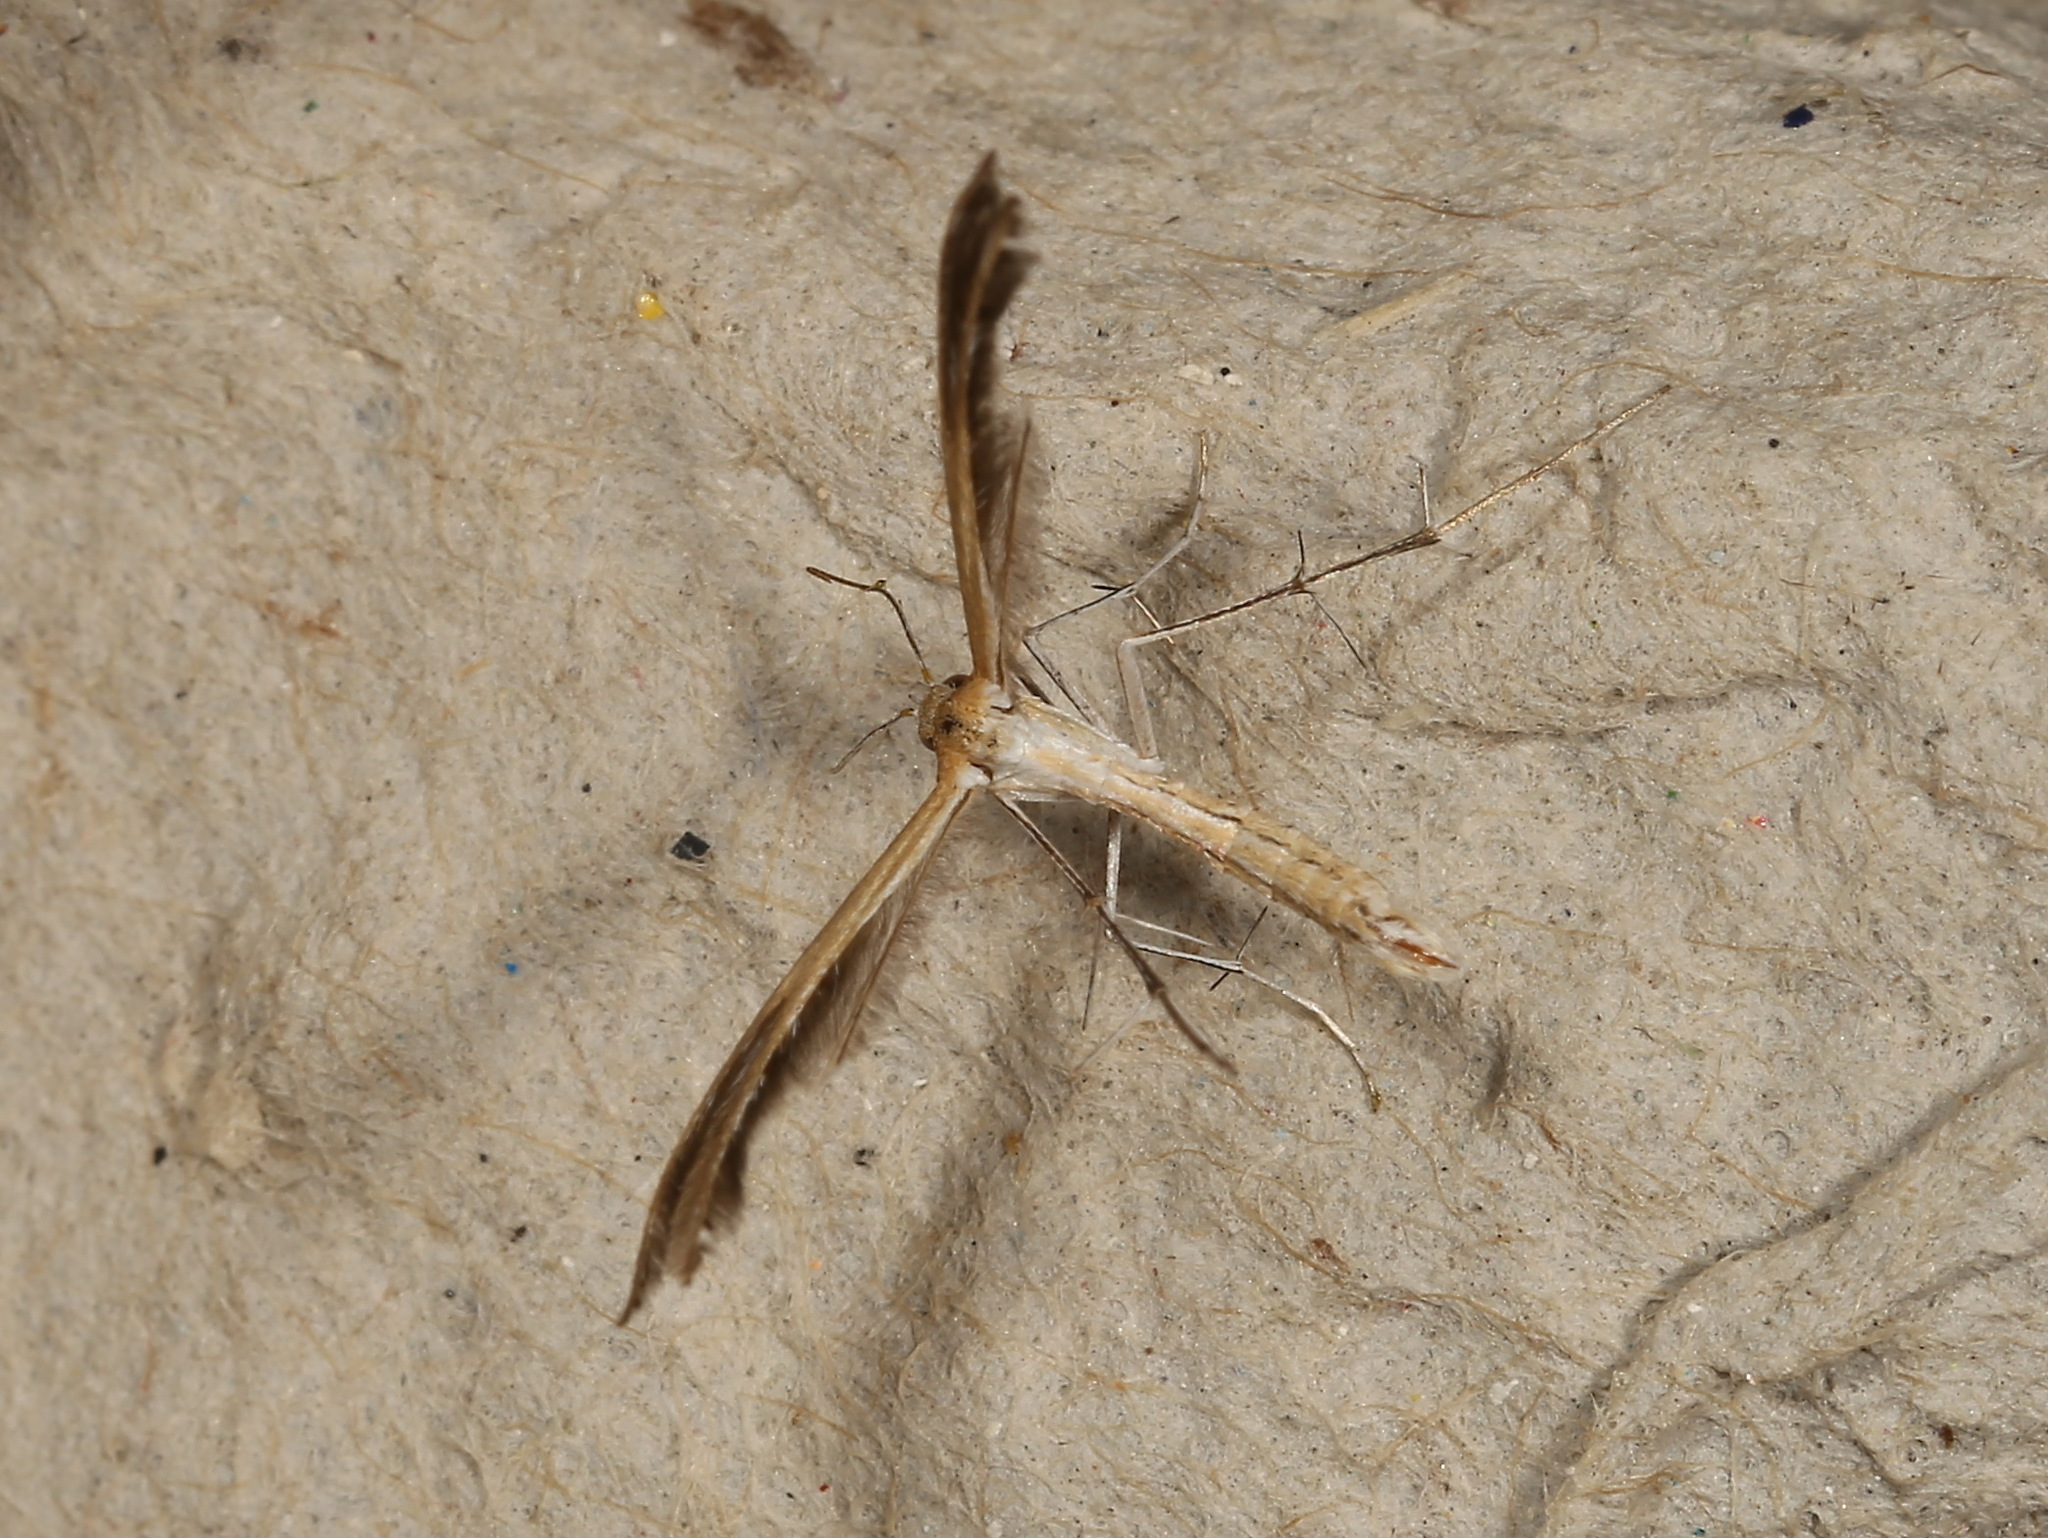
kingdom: Animalia
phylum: Arthropoda
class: Insecta
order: Lepidoptera
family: Pterophoridae
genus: Stangeia
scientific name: Stangeia xerodes
